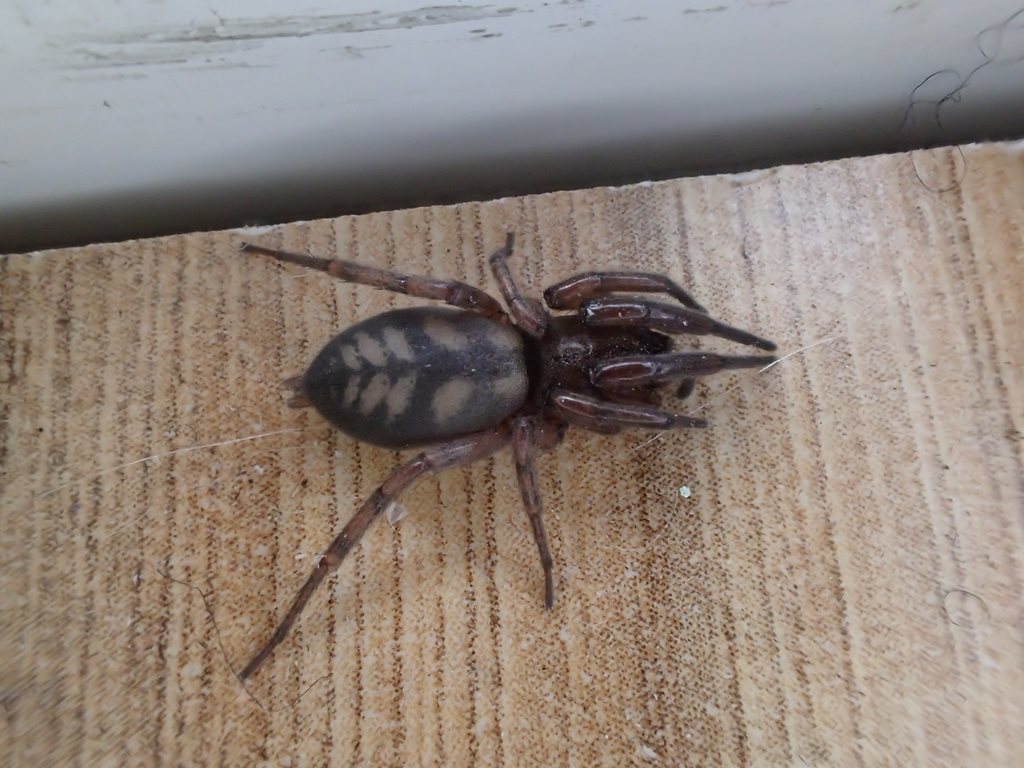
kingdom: Animalia
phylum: Arthropoda
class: Arachnida
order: Araneae
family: Gnaphosidae
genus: Intruda
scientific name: Intruda signata
